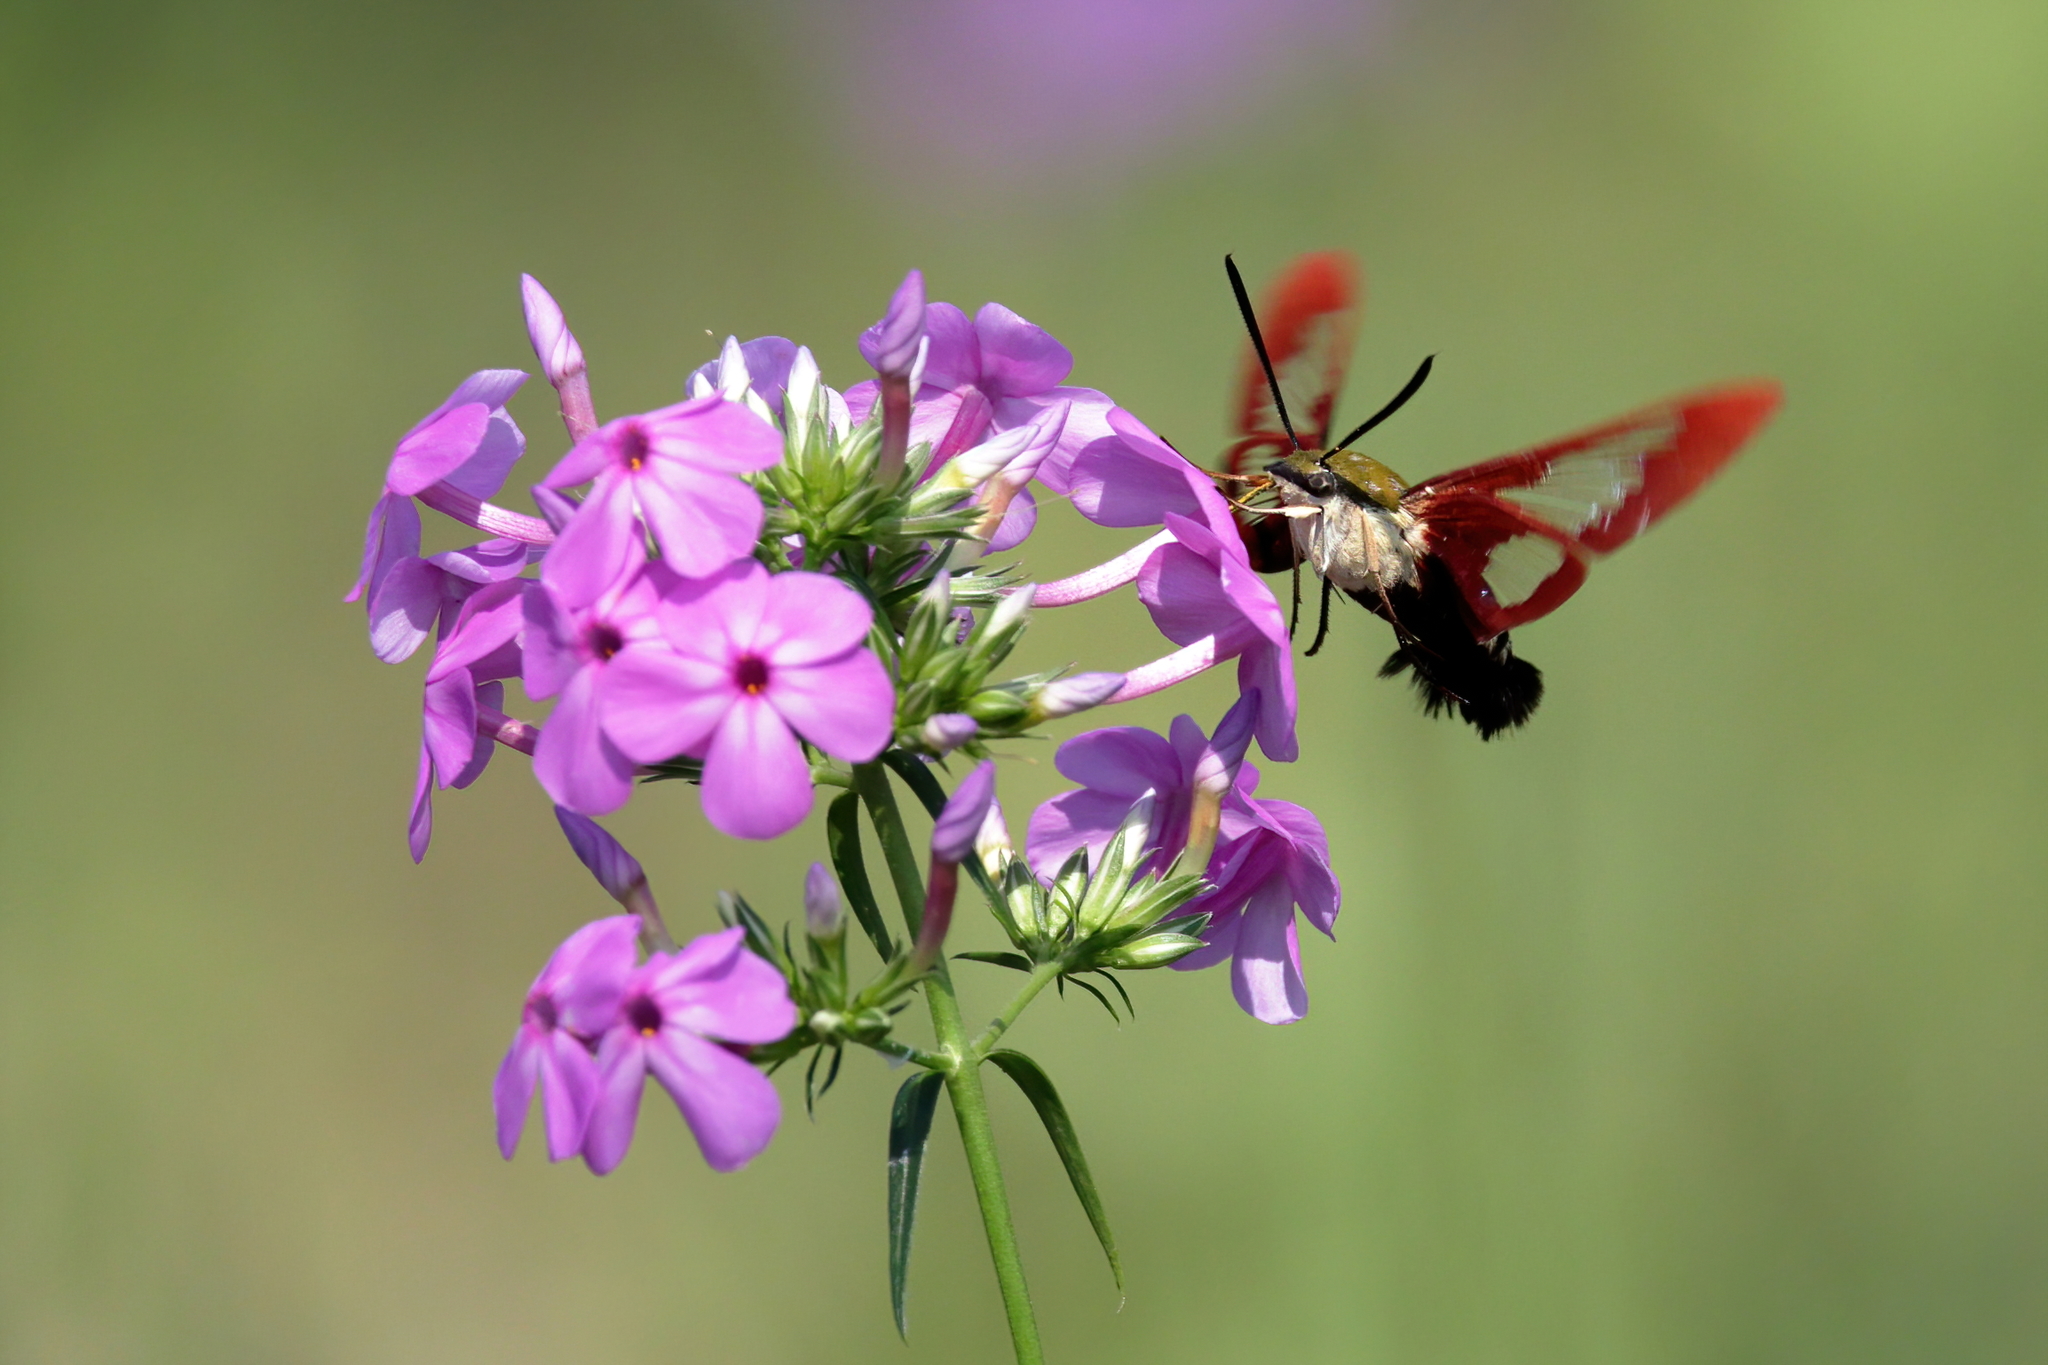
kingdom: Animalia
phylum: Arthropoda
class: Insecta
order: Lepidoptera
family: Sphingidae
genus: Hemaris
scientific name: Hemaris thysbe
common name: Common clear-wing
